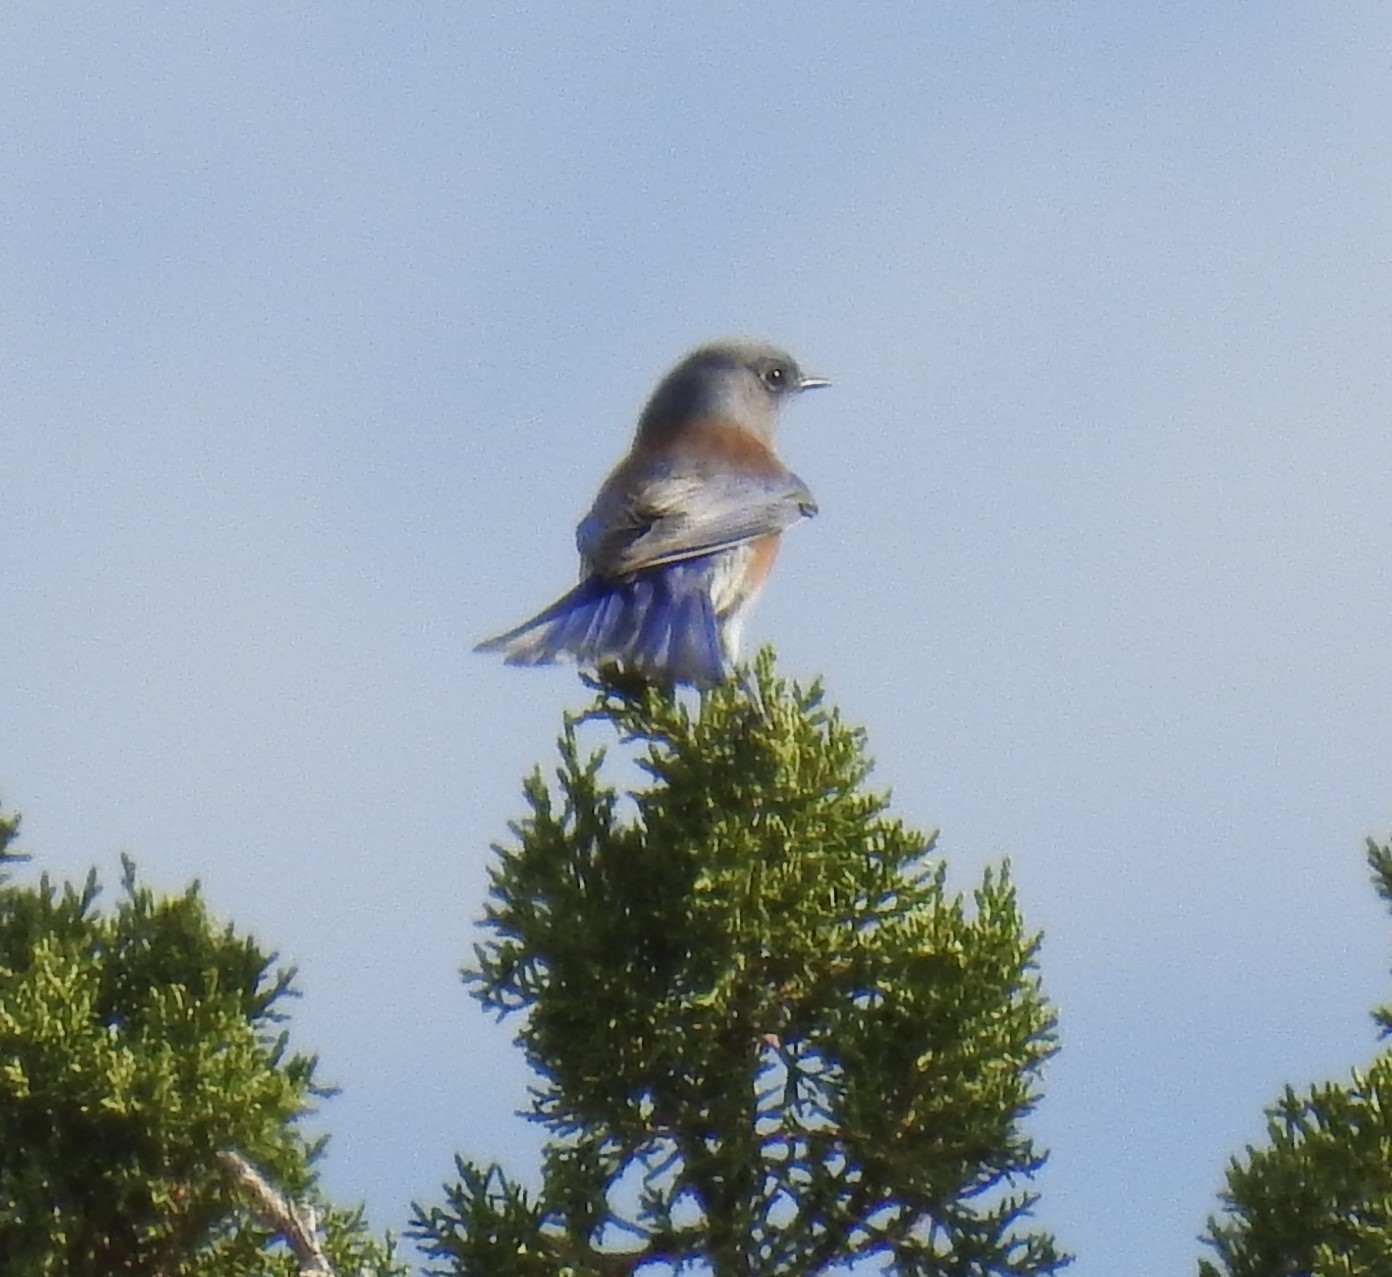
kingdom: Animalia
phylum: Chordata
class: Aves
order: Passeriformes
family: Turdidae
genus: Sialia
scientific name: Sialia mexicana
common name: Western bluebird
